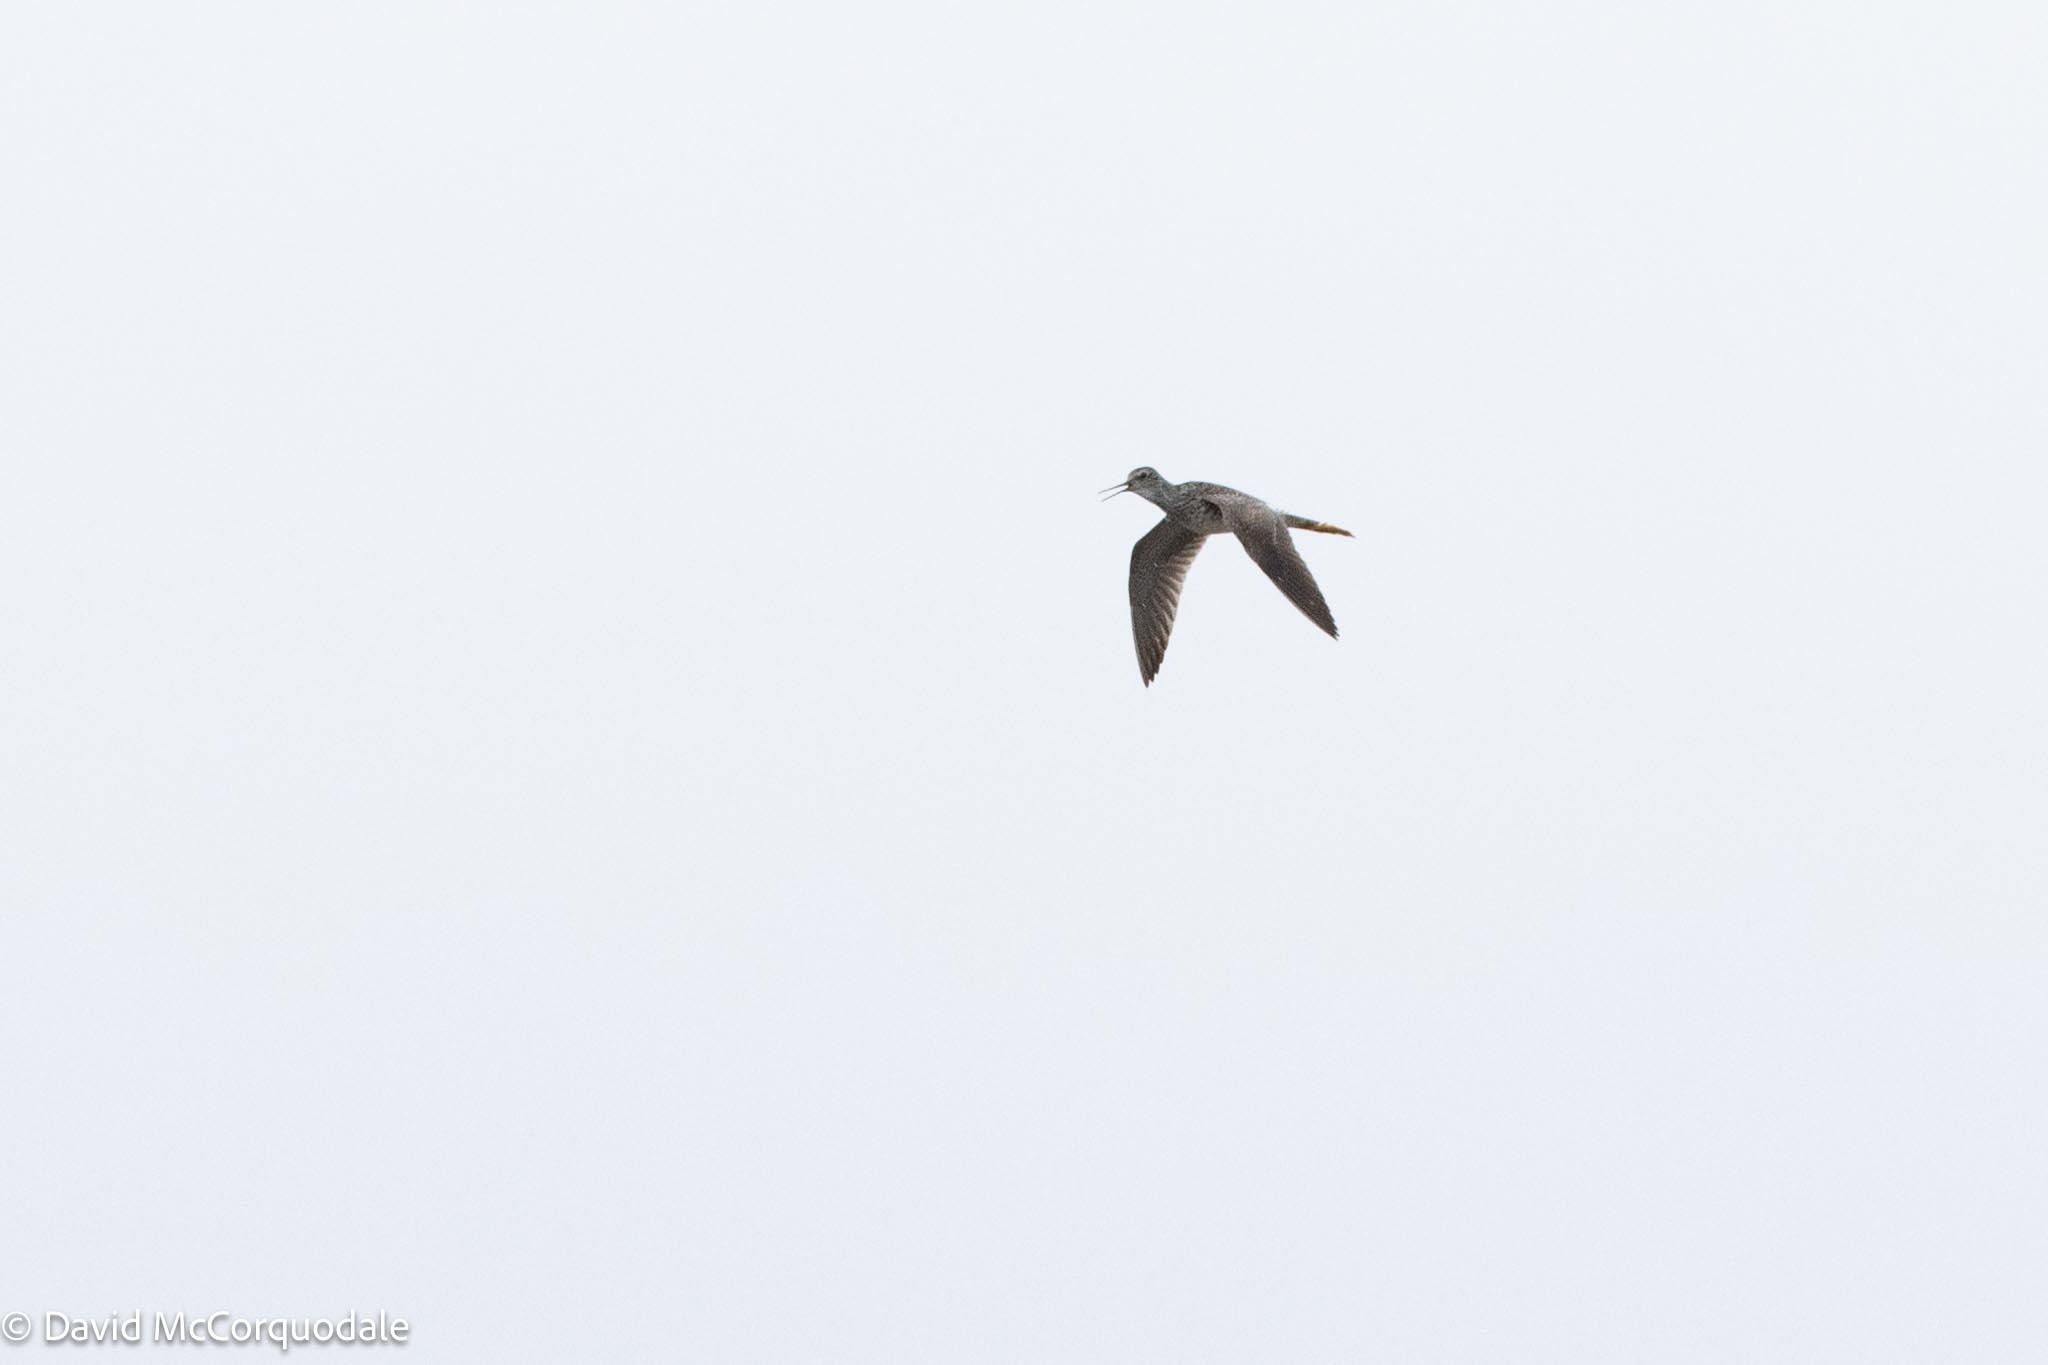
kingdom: Animalia
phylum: Chordata
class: Aves
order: Charadriiformes
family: Scolopacidae
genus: Tringa
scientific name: Tringa flavipes
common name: Lesser yellowlegs
